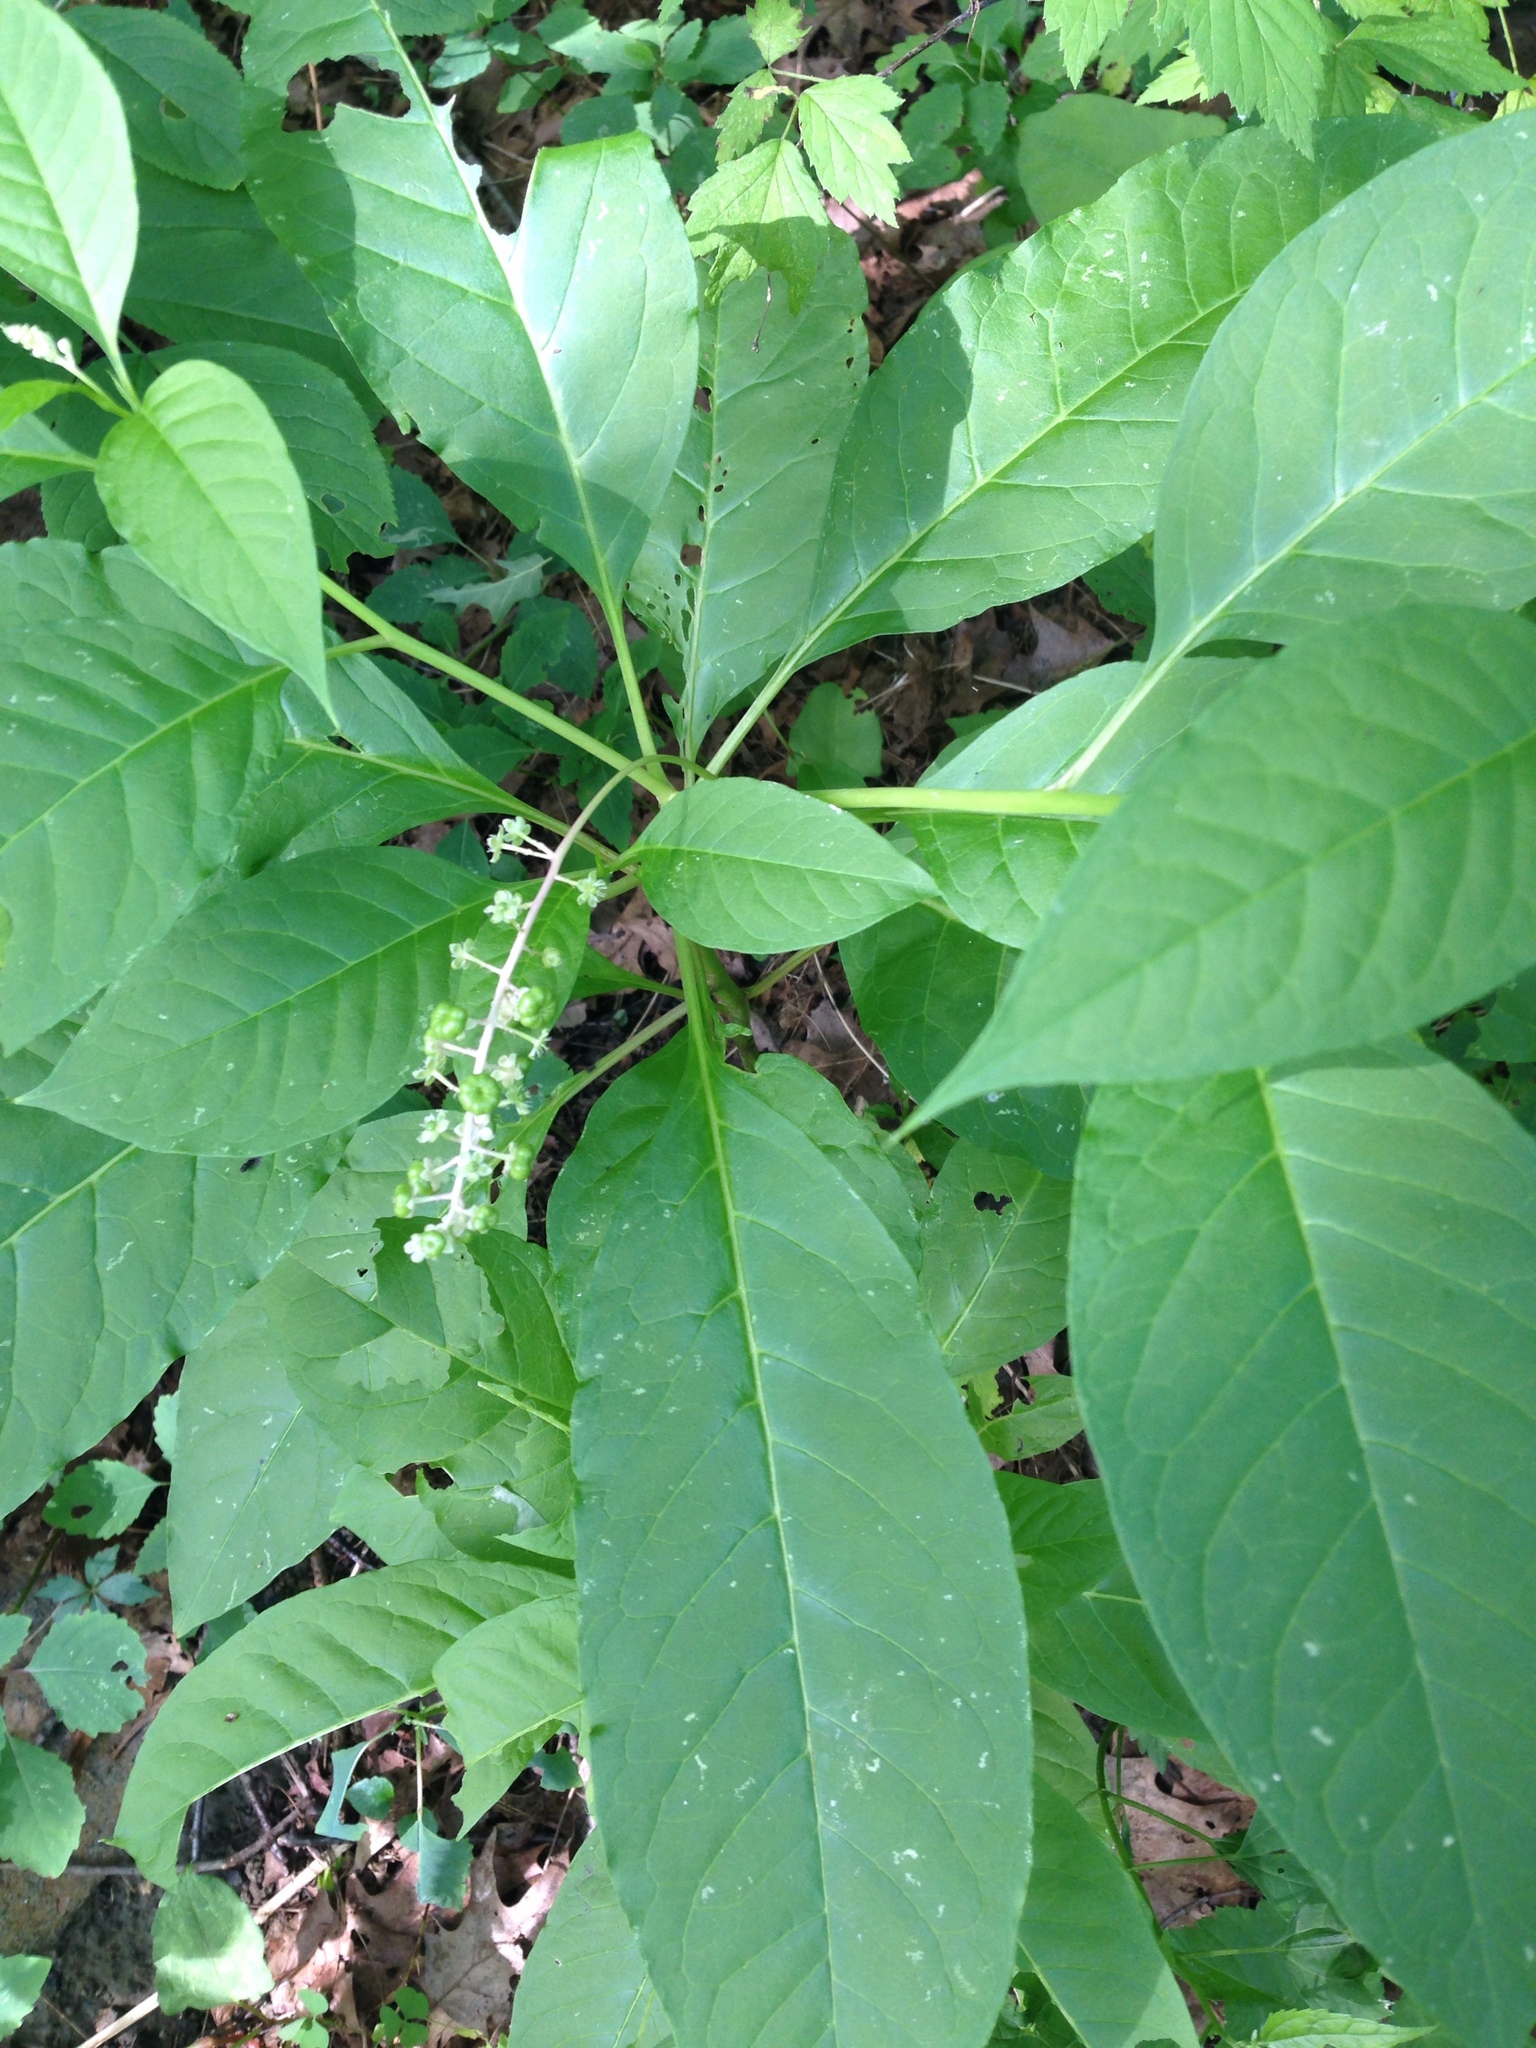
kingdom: Plantae
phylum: Tracheophyta
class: Magnoliopsida
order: Caryophyllales
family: Phytolaccaceae
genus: Phytolacca
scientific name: Phytolacca americana
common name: American pokeweed
